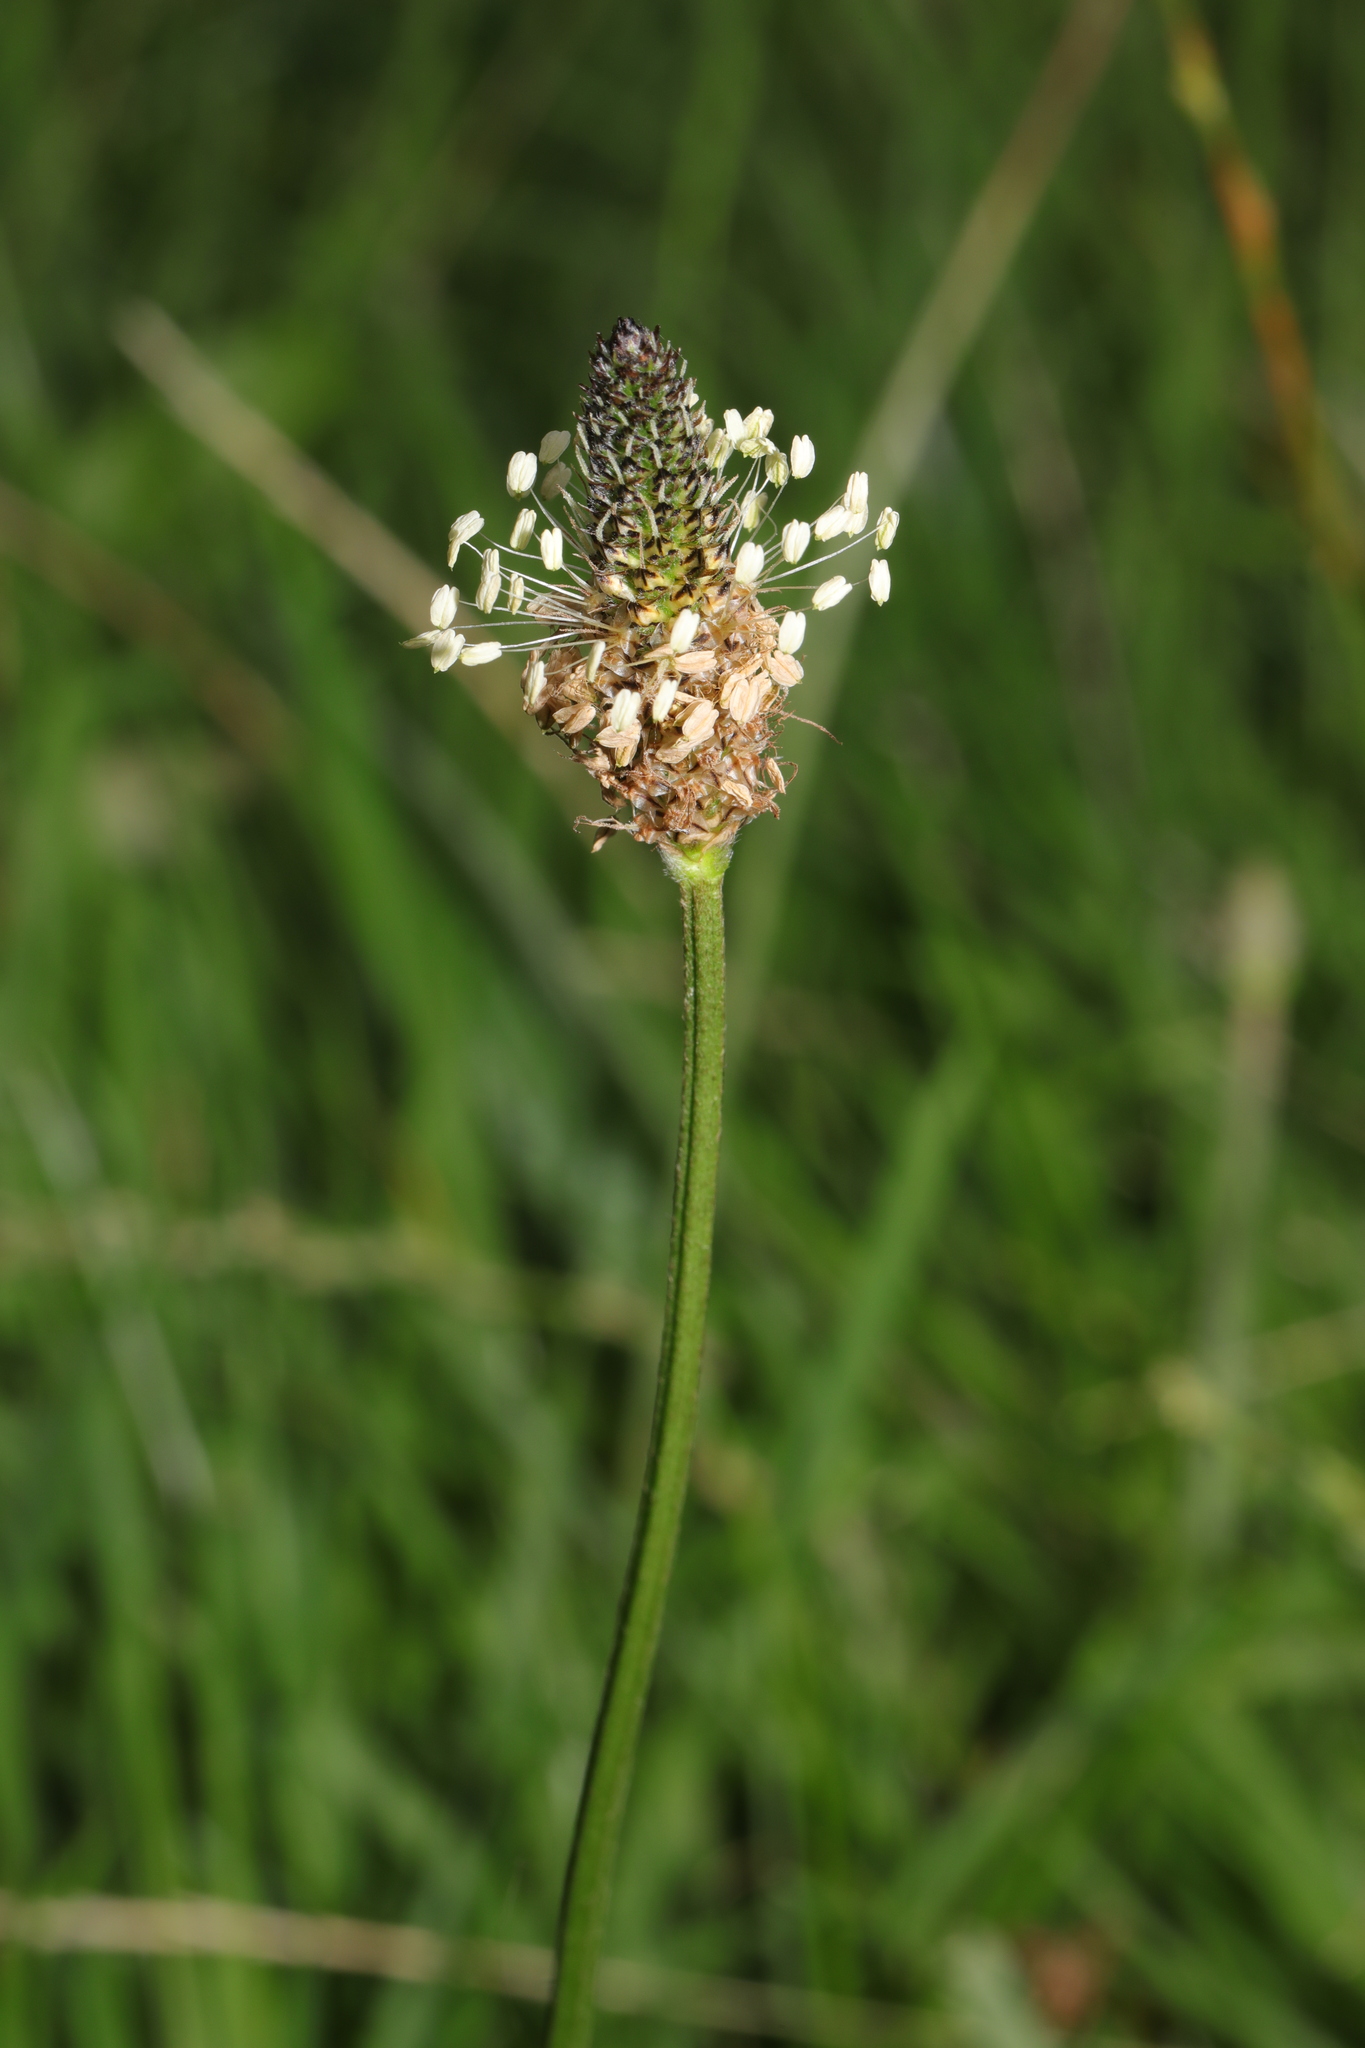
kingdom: Plantae
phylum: Tracheophyta
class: Magnoliopsida
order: Lamiales
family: Plantaginaceae
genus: Plantago
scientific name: Plantago lanceolata
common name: Ribwort plantain
